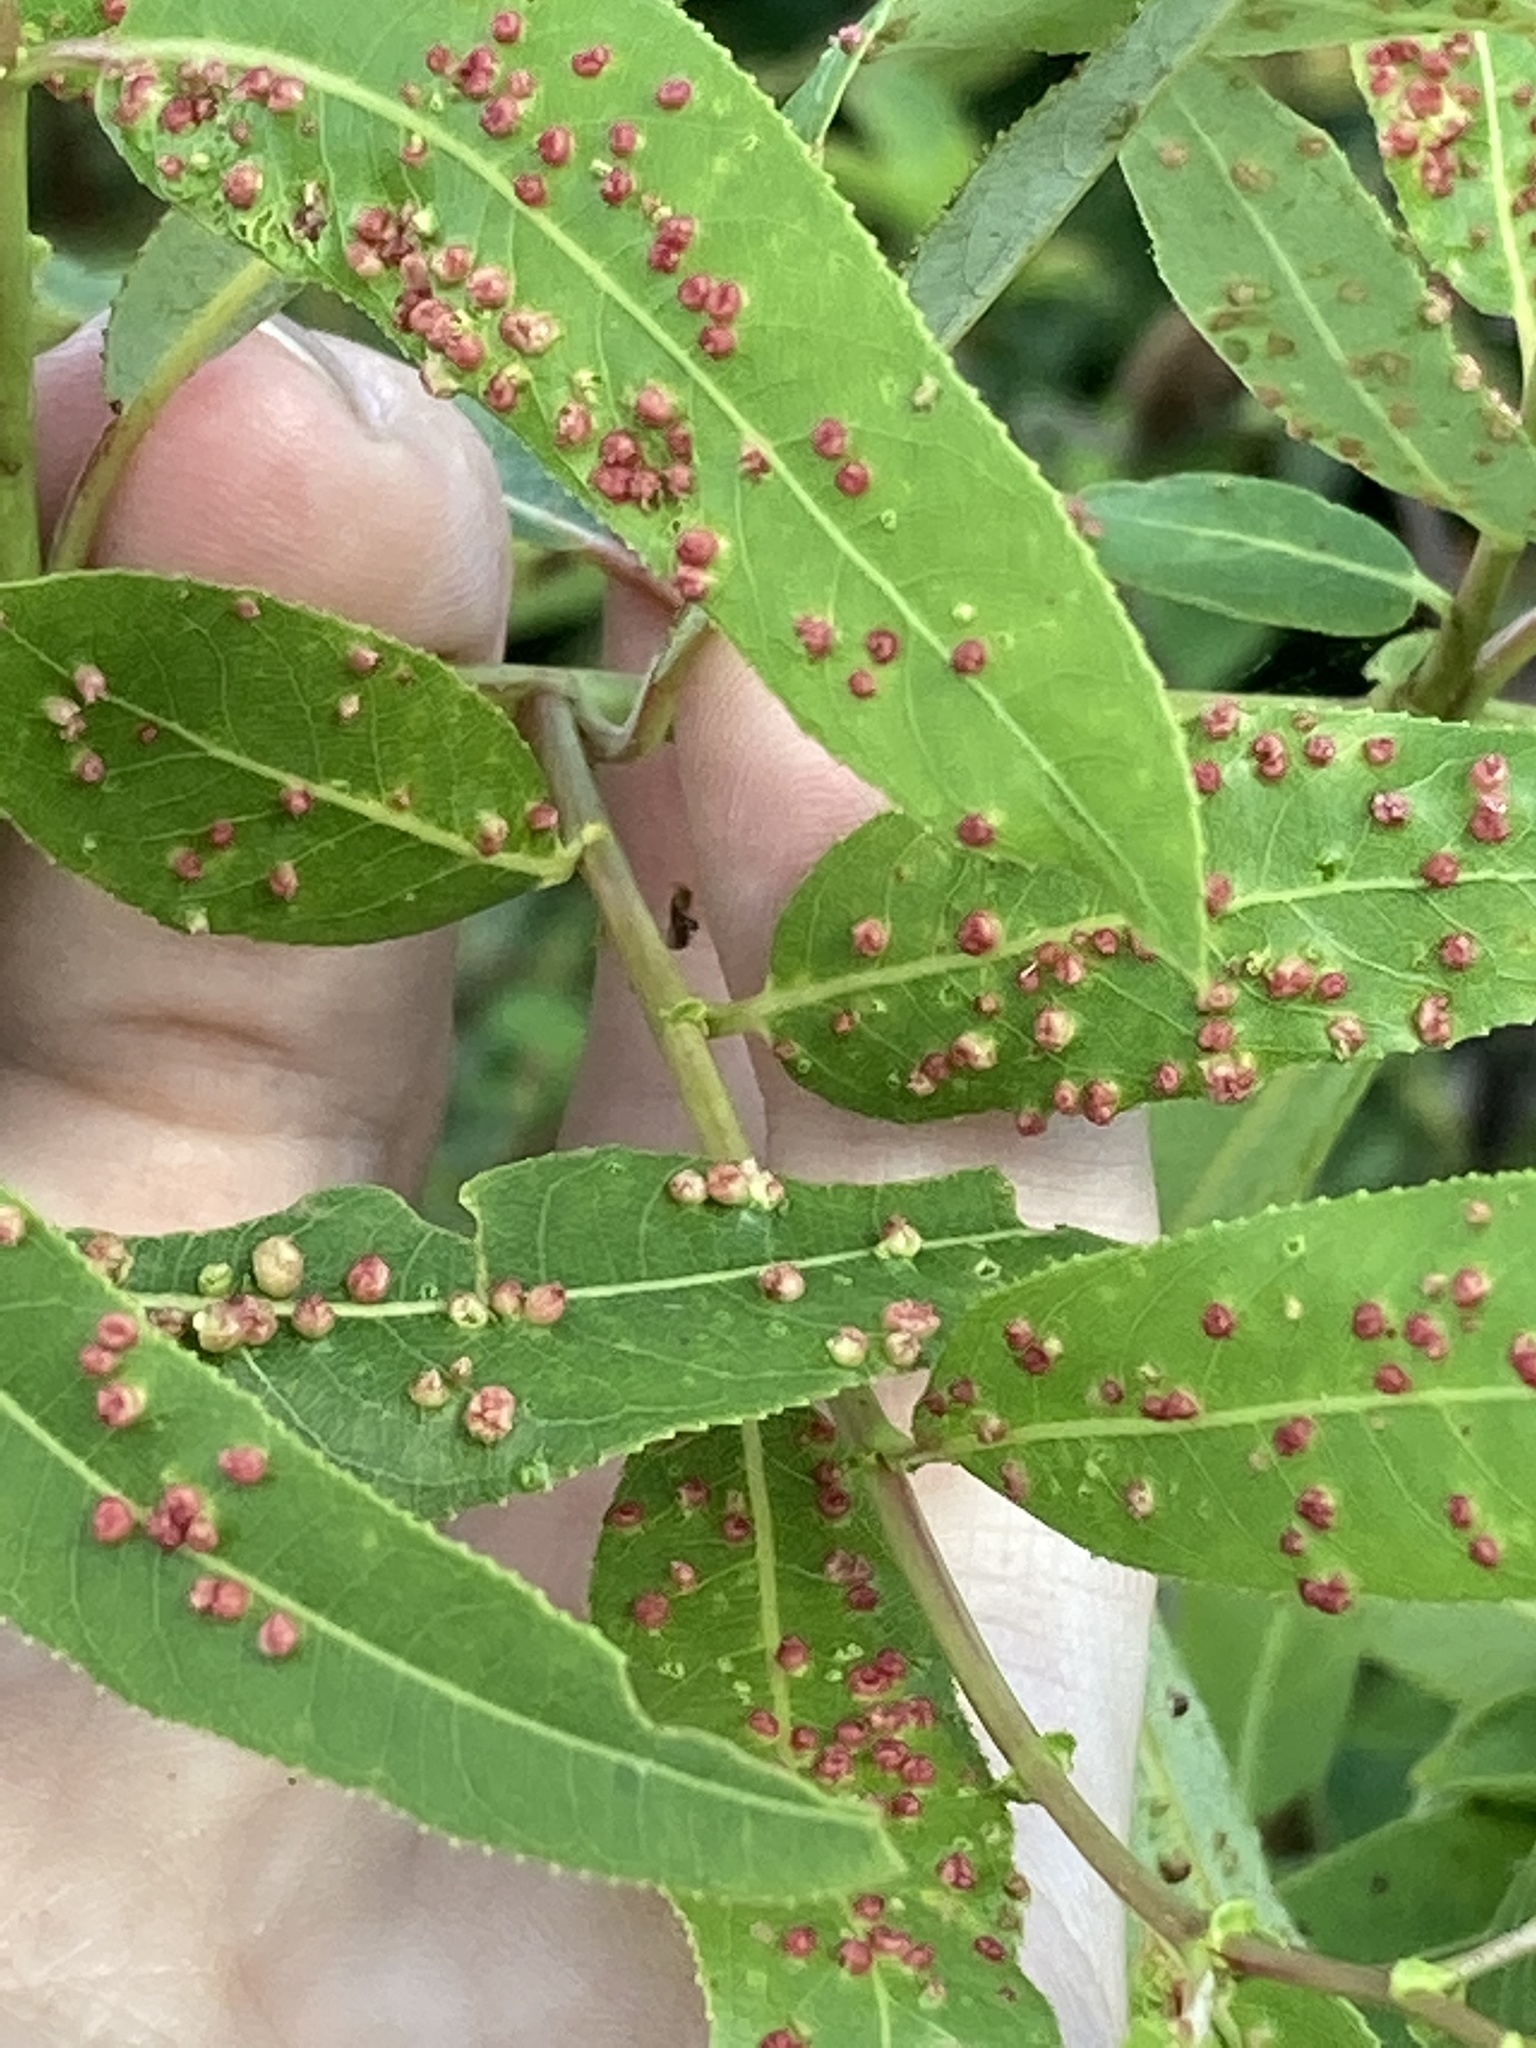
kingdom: Plantae
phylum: Tracheophyta
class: Magnoliopsida
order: Malpighiales
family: Salicaceae
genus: Salix
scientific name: Salix caroliniana
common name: Carolina willow
